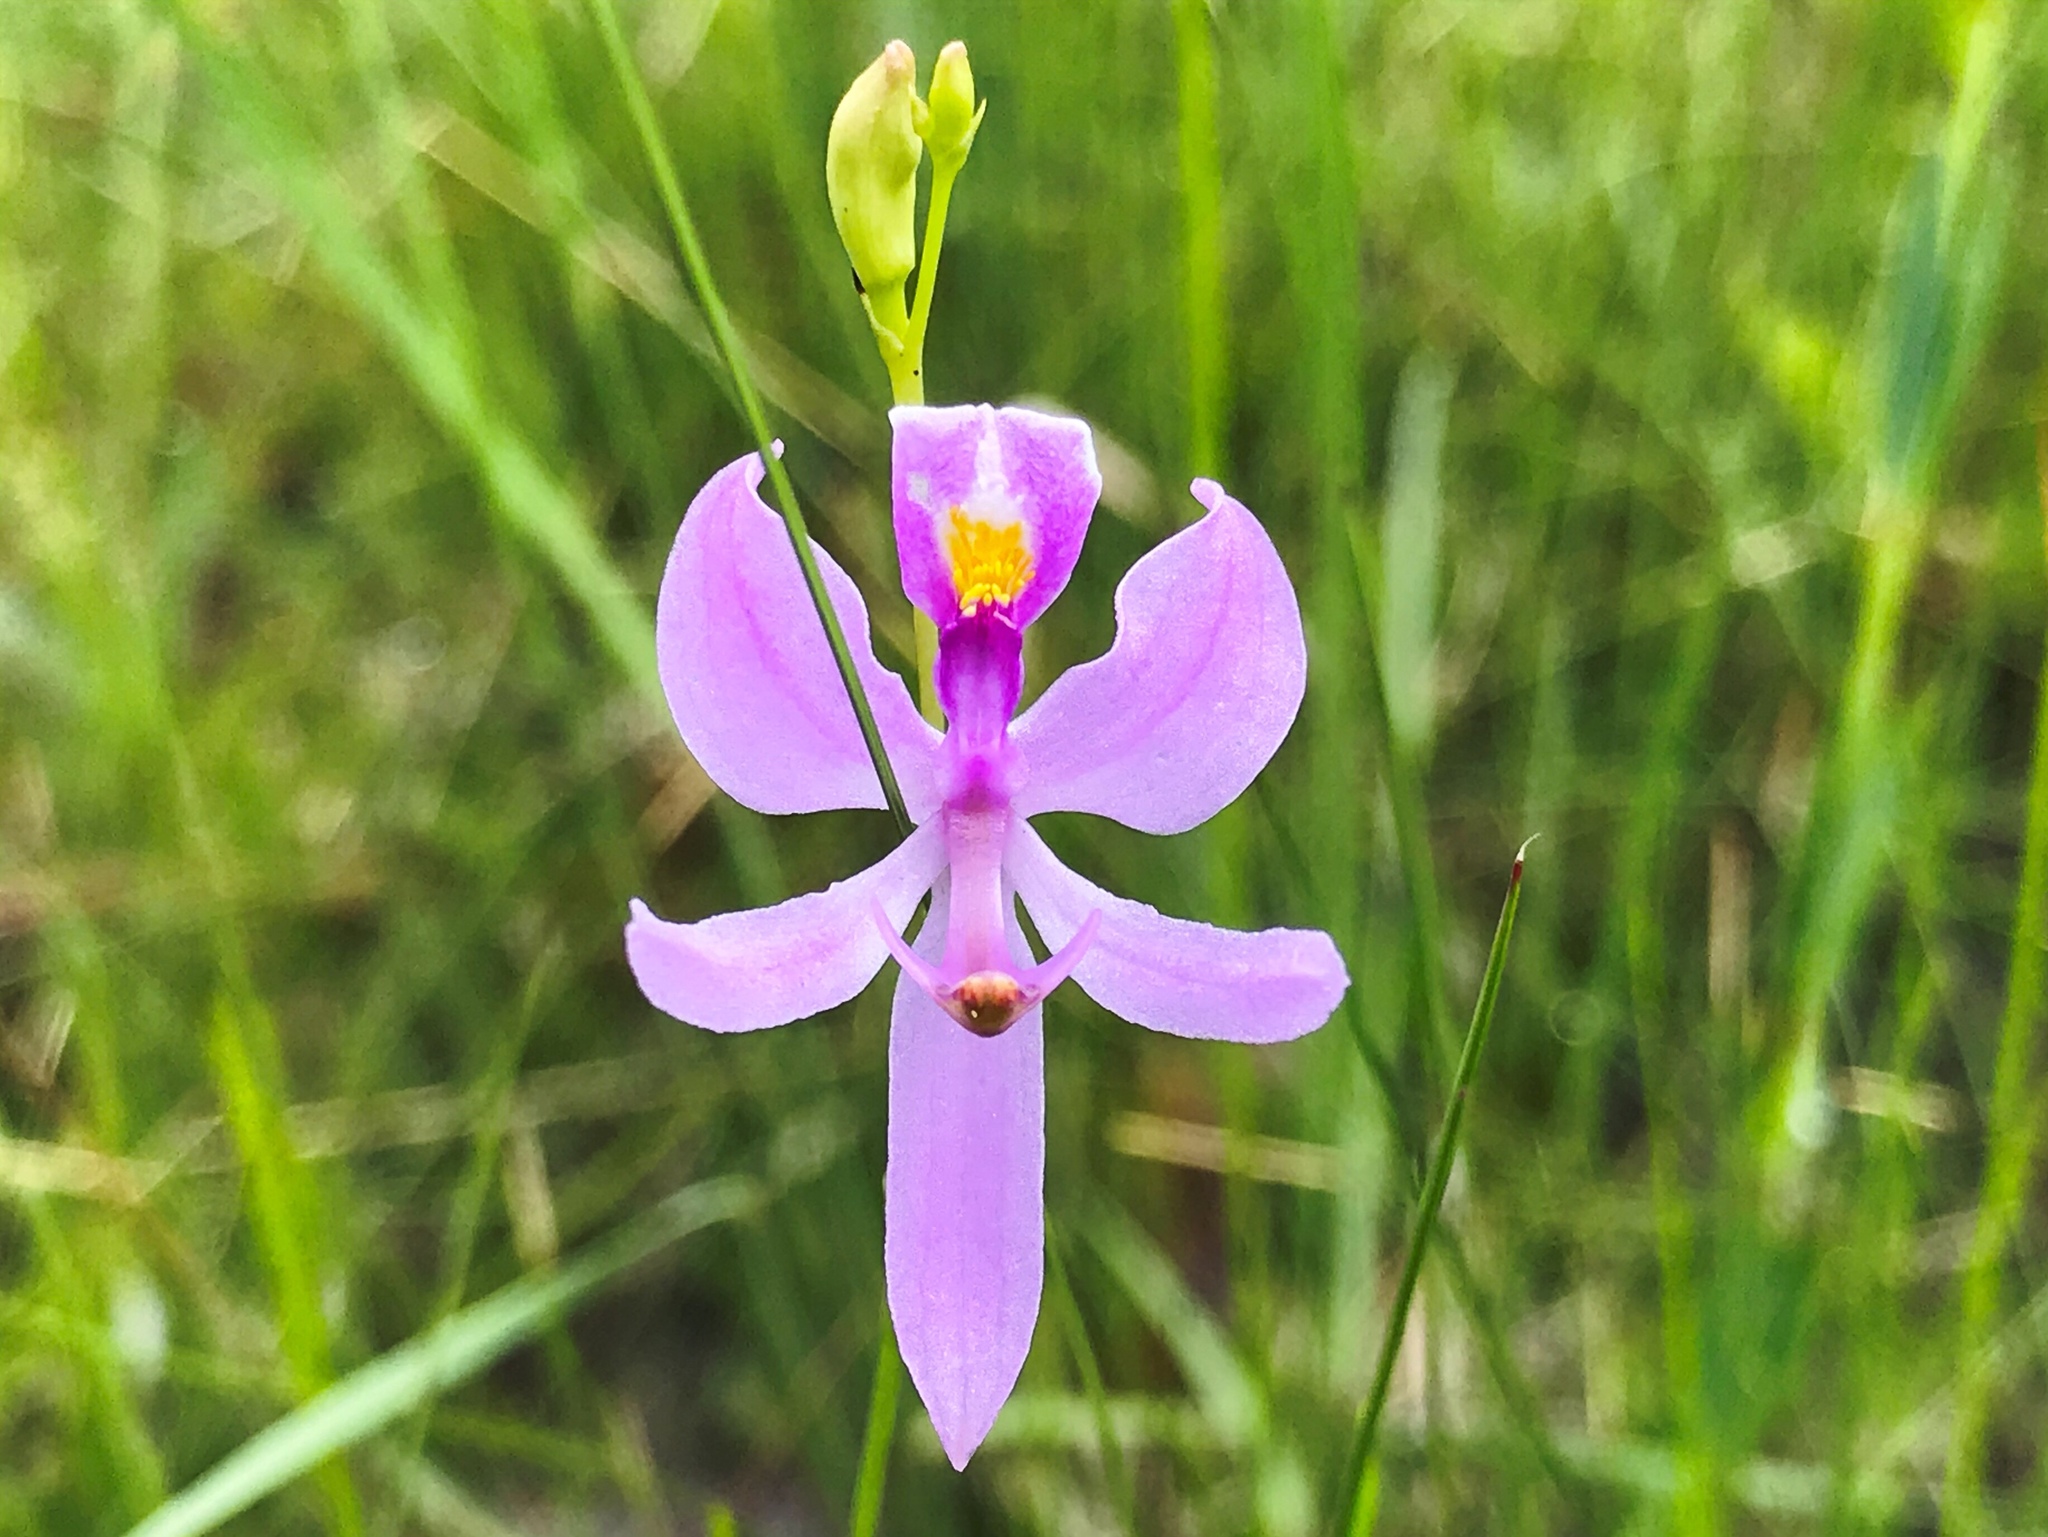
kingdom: Plantae
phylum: Tracheophyta
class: Liliopsida
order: Asparagales
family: Orchidaceae
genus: Calopogon
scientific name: Calopogon pallidus
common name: Pale grasspink
